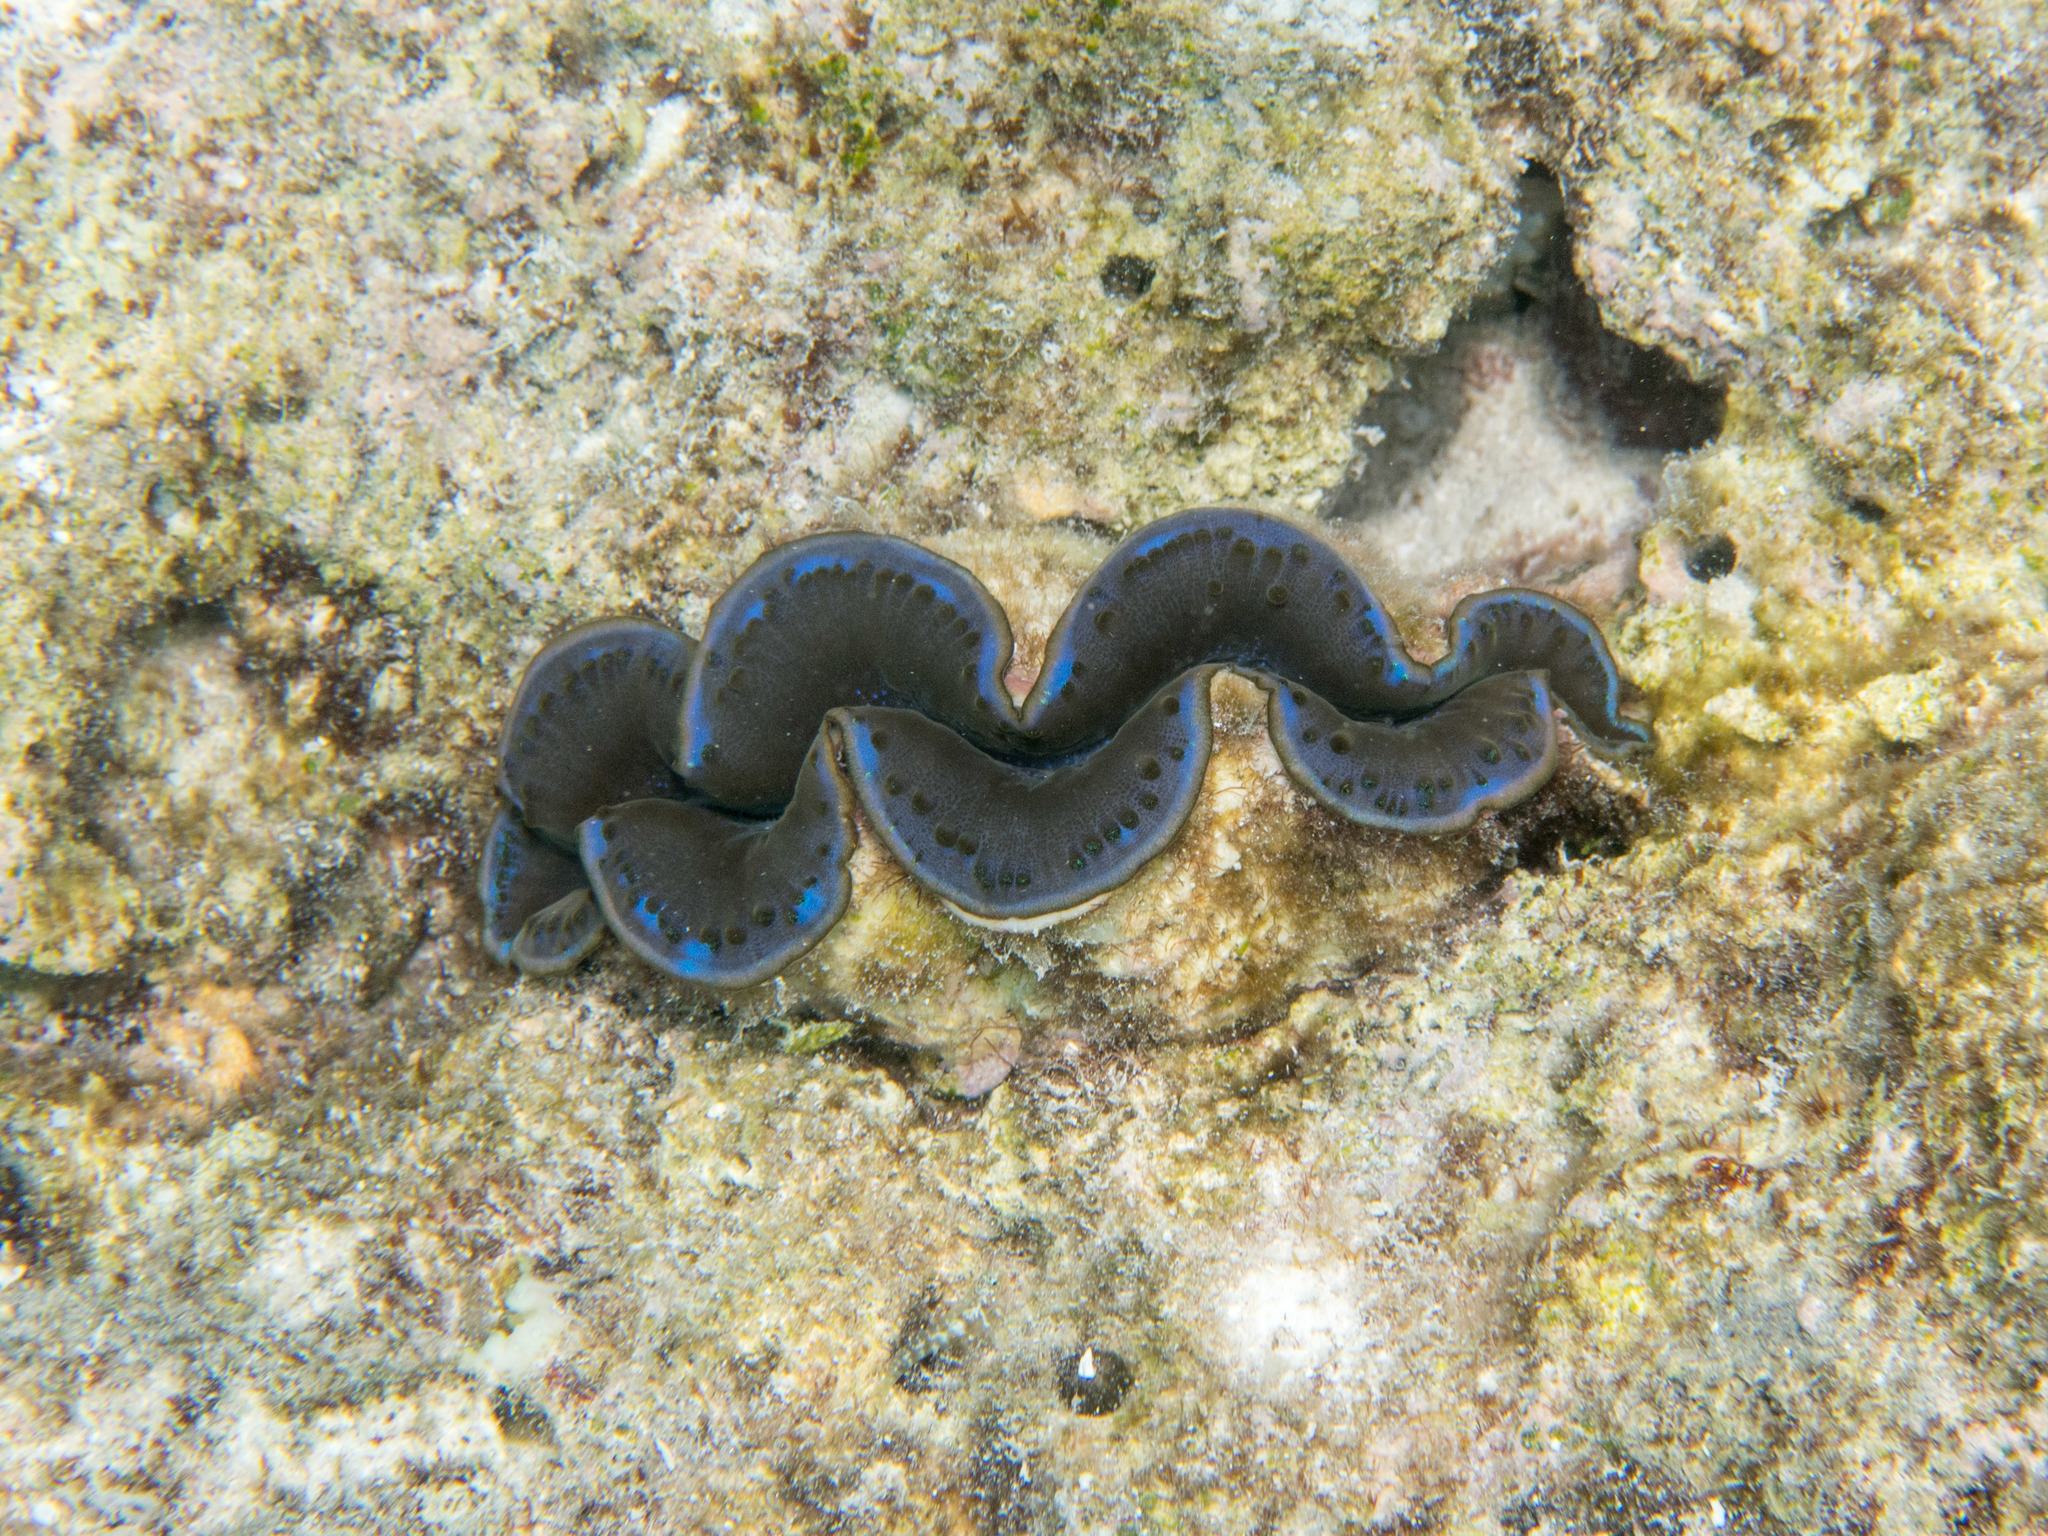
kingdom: Animalia
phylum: Mollusca
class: Bivalvia
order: Cardiida
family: Cardiidae
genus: Tridacna
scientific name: Tridacna maxima
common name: Small giant clam
